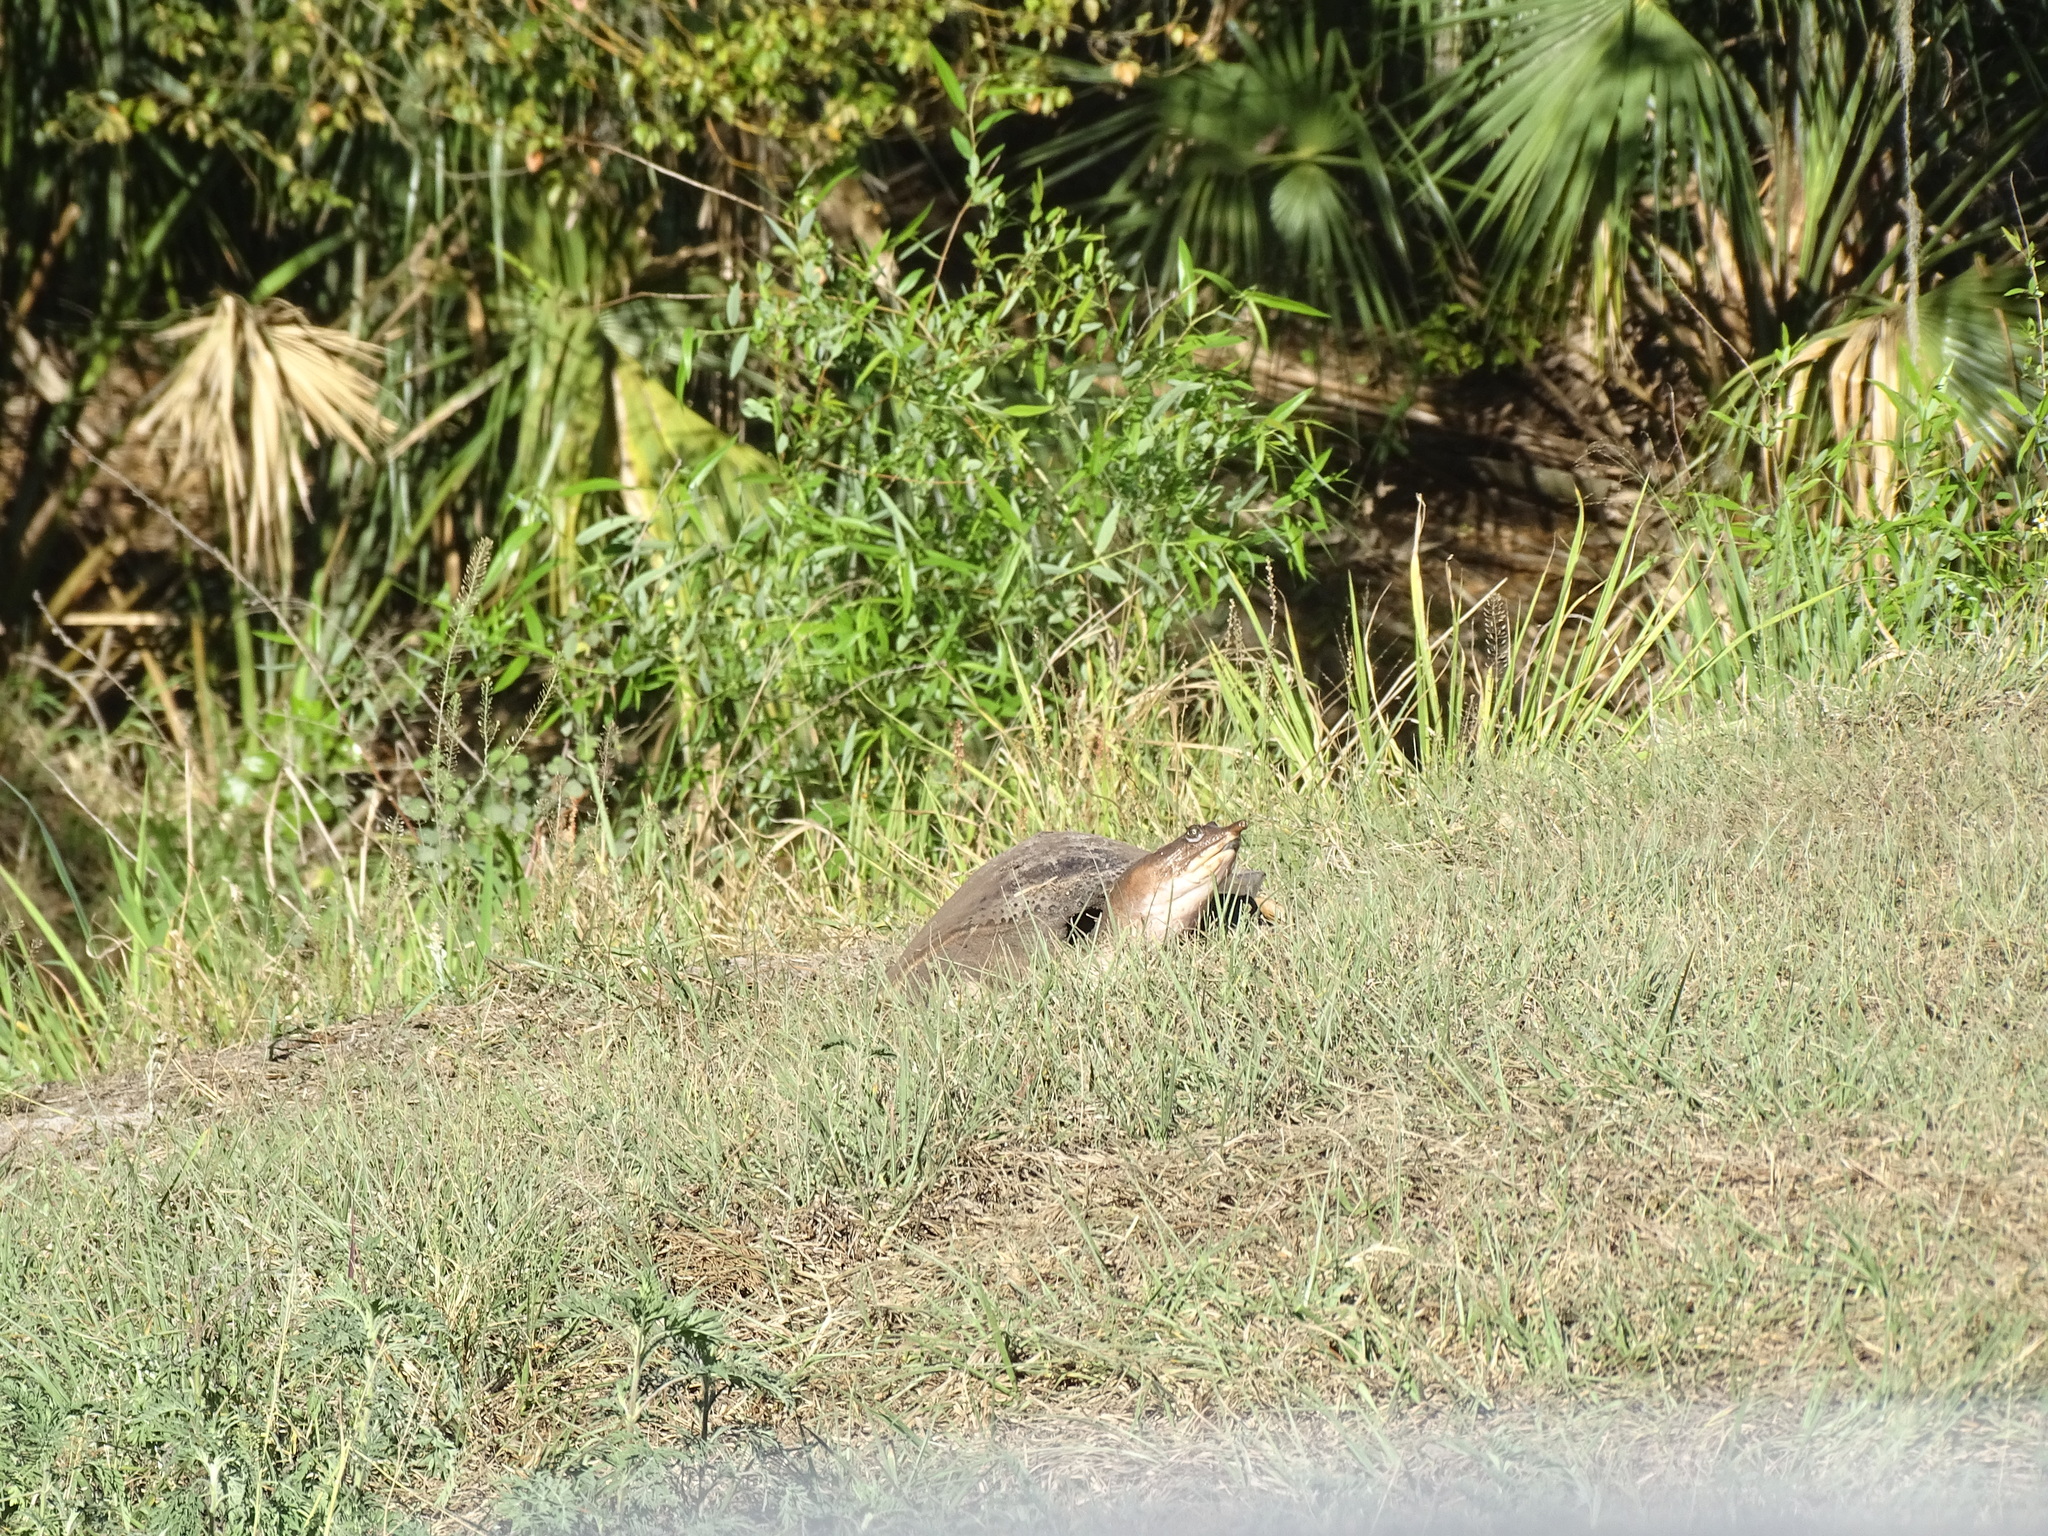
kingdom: Animalia
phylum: Chordata
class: Testudines
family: Trionychidae
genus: Apalone
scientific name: Apalone ferox
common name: Florida softshell turtle
